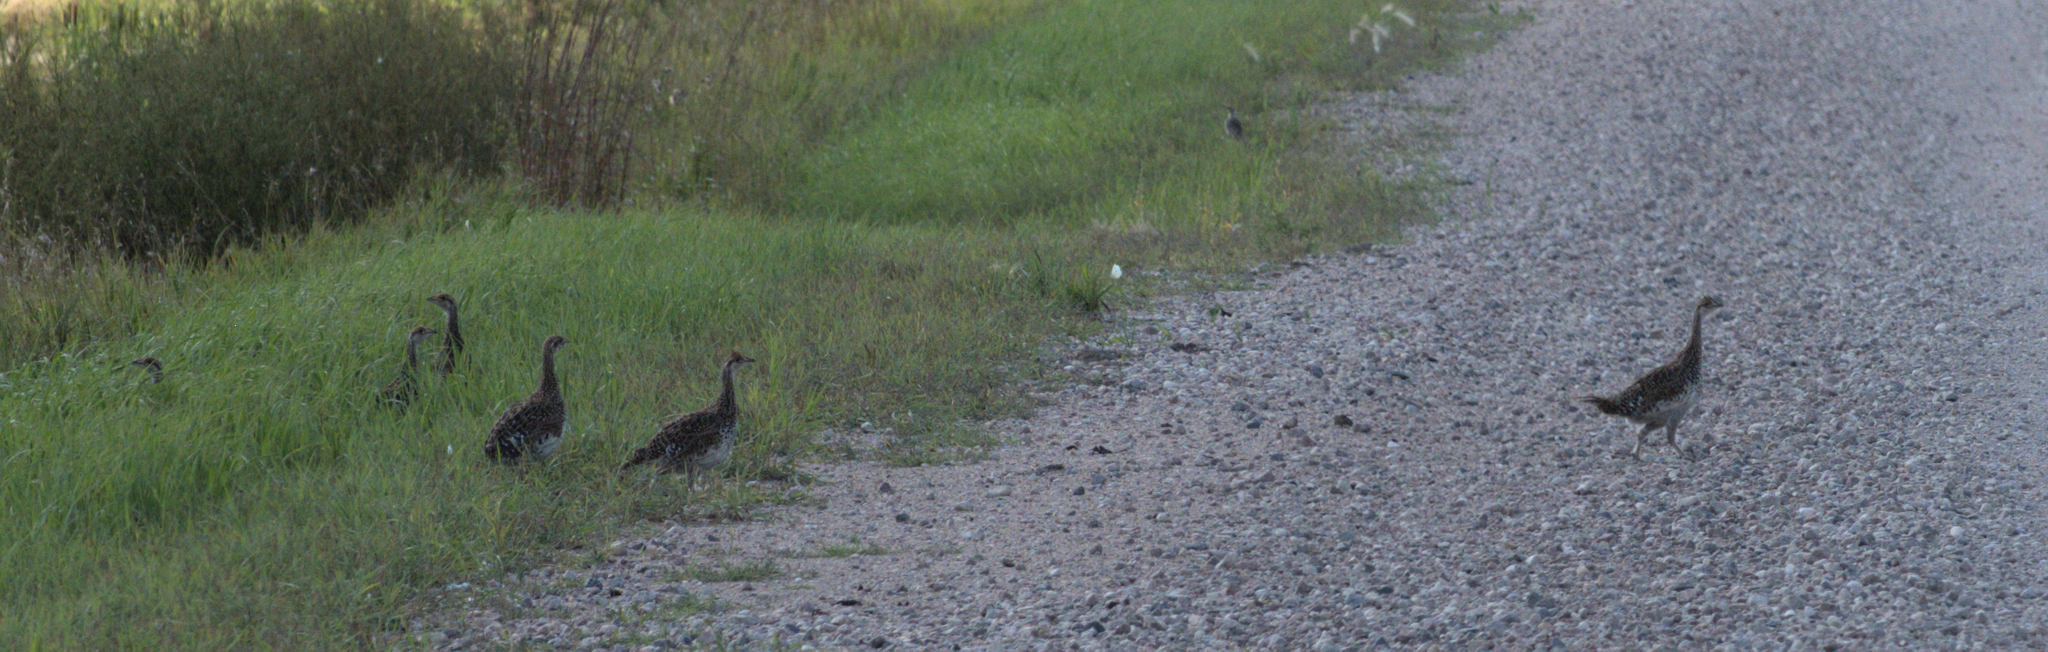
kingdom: Animalia
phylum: Chordata
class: Aves
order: Galliformes
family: Phasianidae
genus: Tympanuchus
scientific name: Tympanuchus phasianellus
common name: Sharp-tailed grouse
